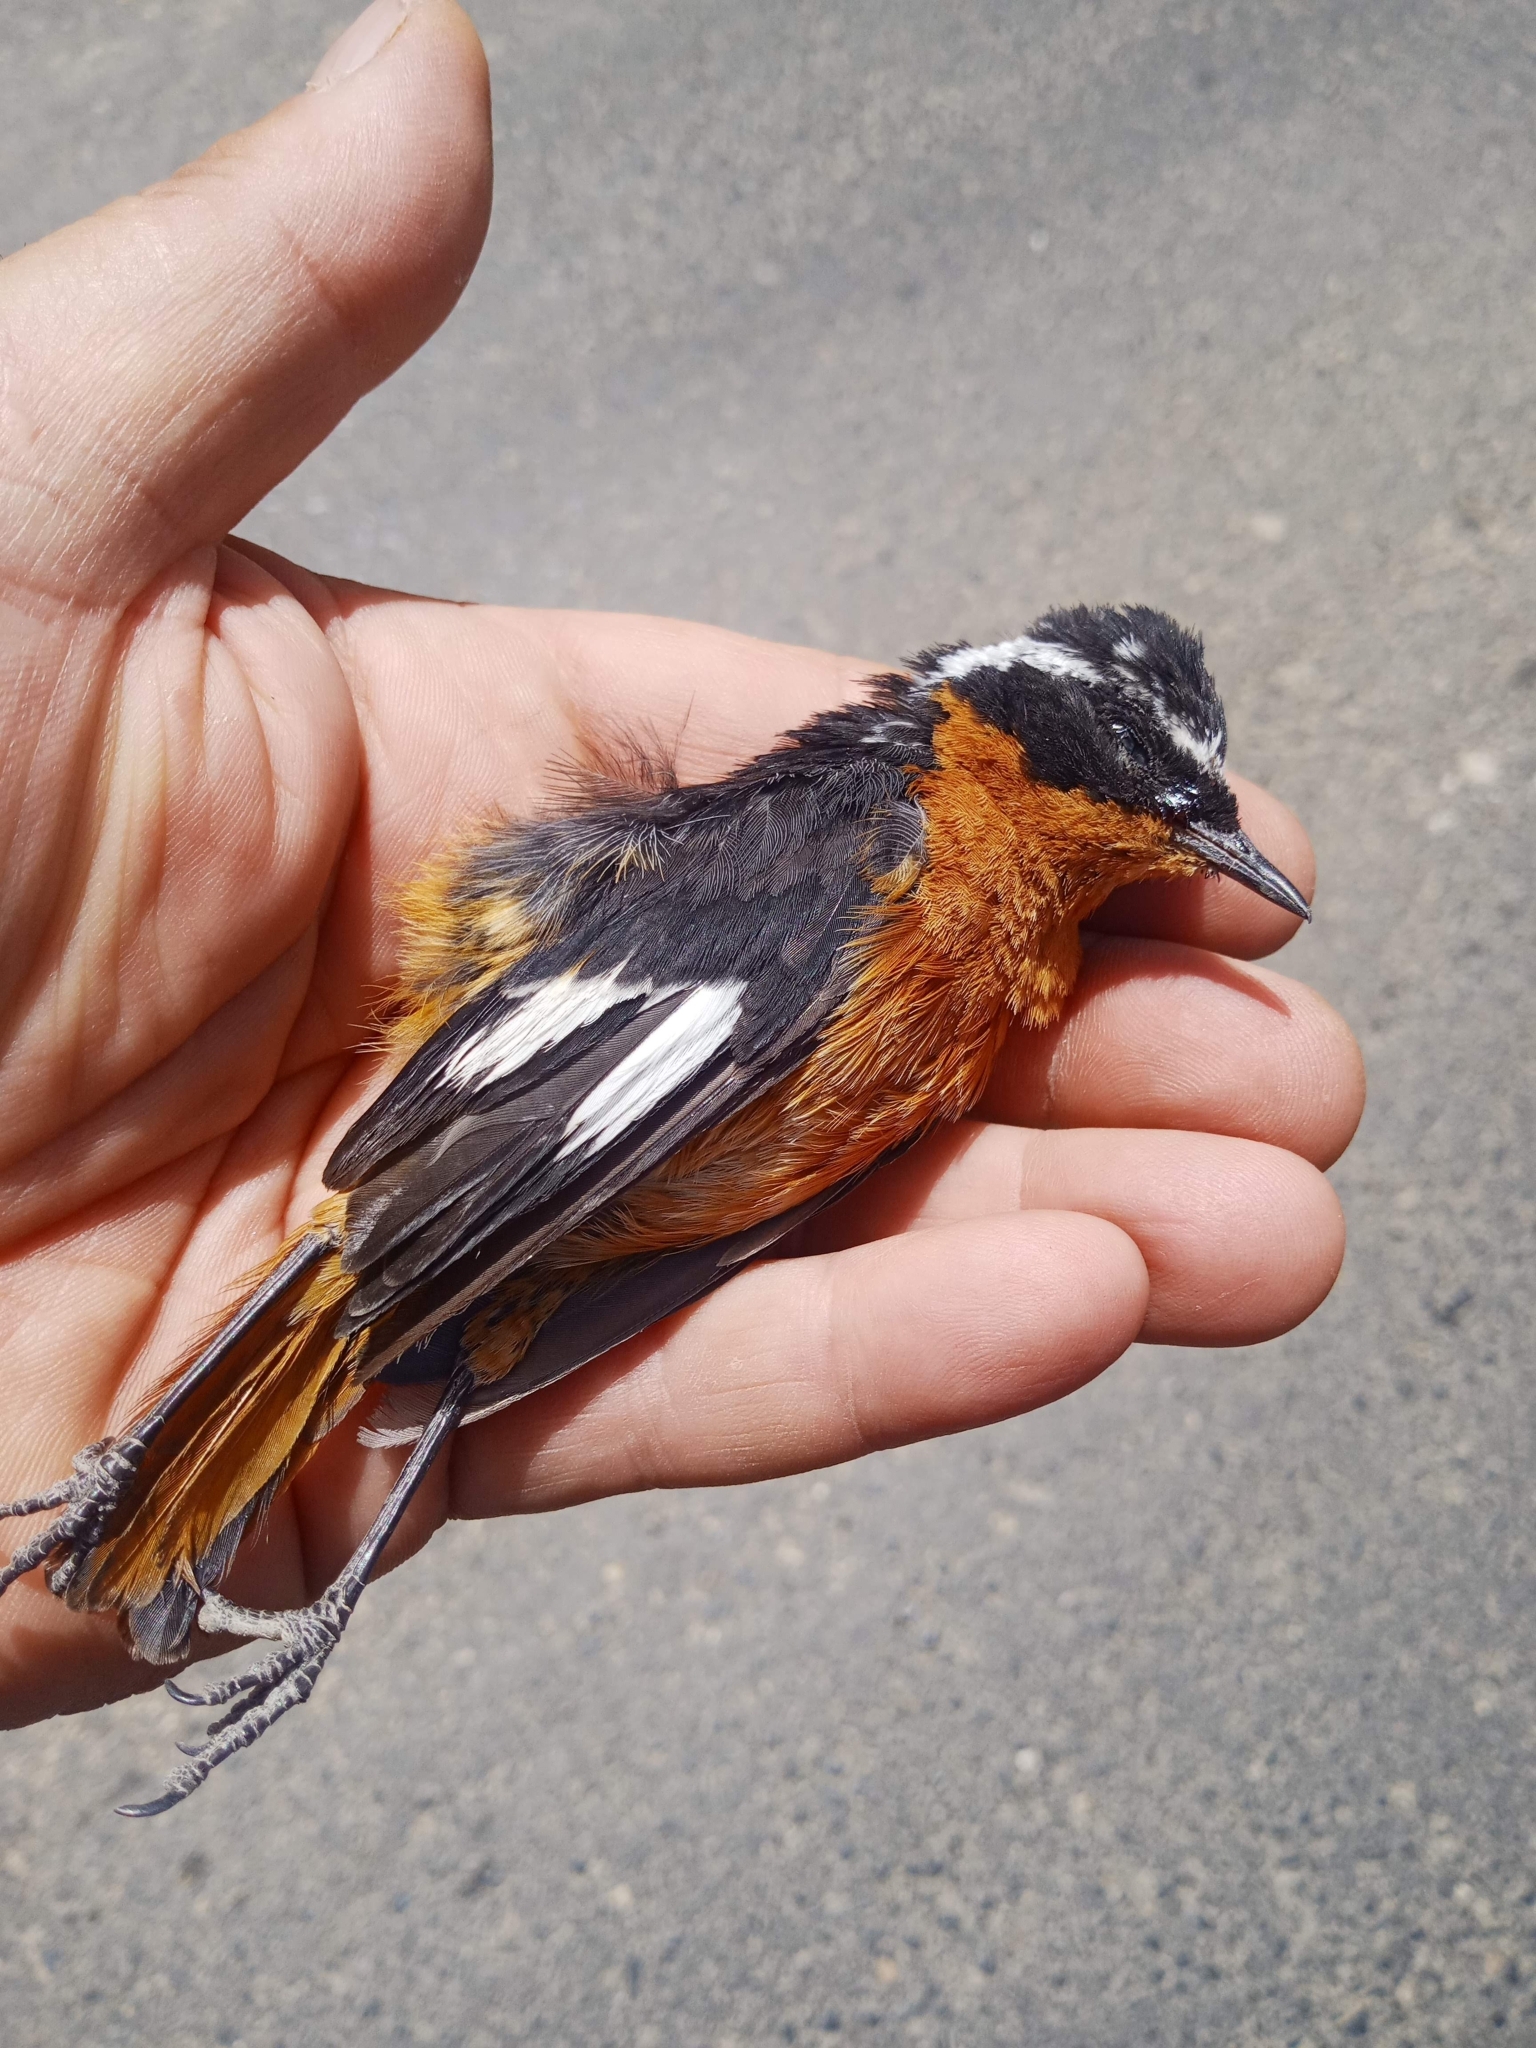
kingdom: Animalia
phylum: Chordata
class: Aves
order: Passeriformes
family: Muscicapidae
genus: Phoenicurus
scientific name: Phoenicurus moussieri
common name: Moussier's redstart
